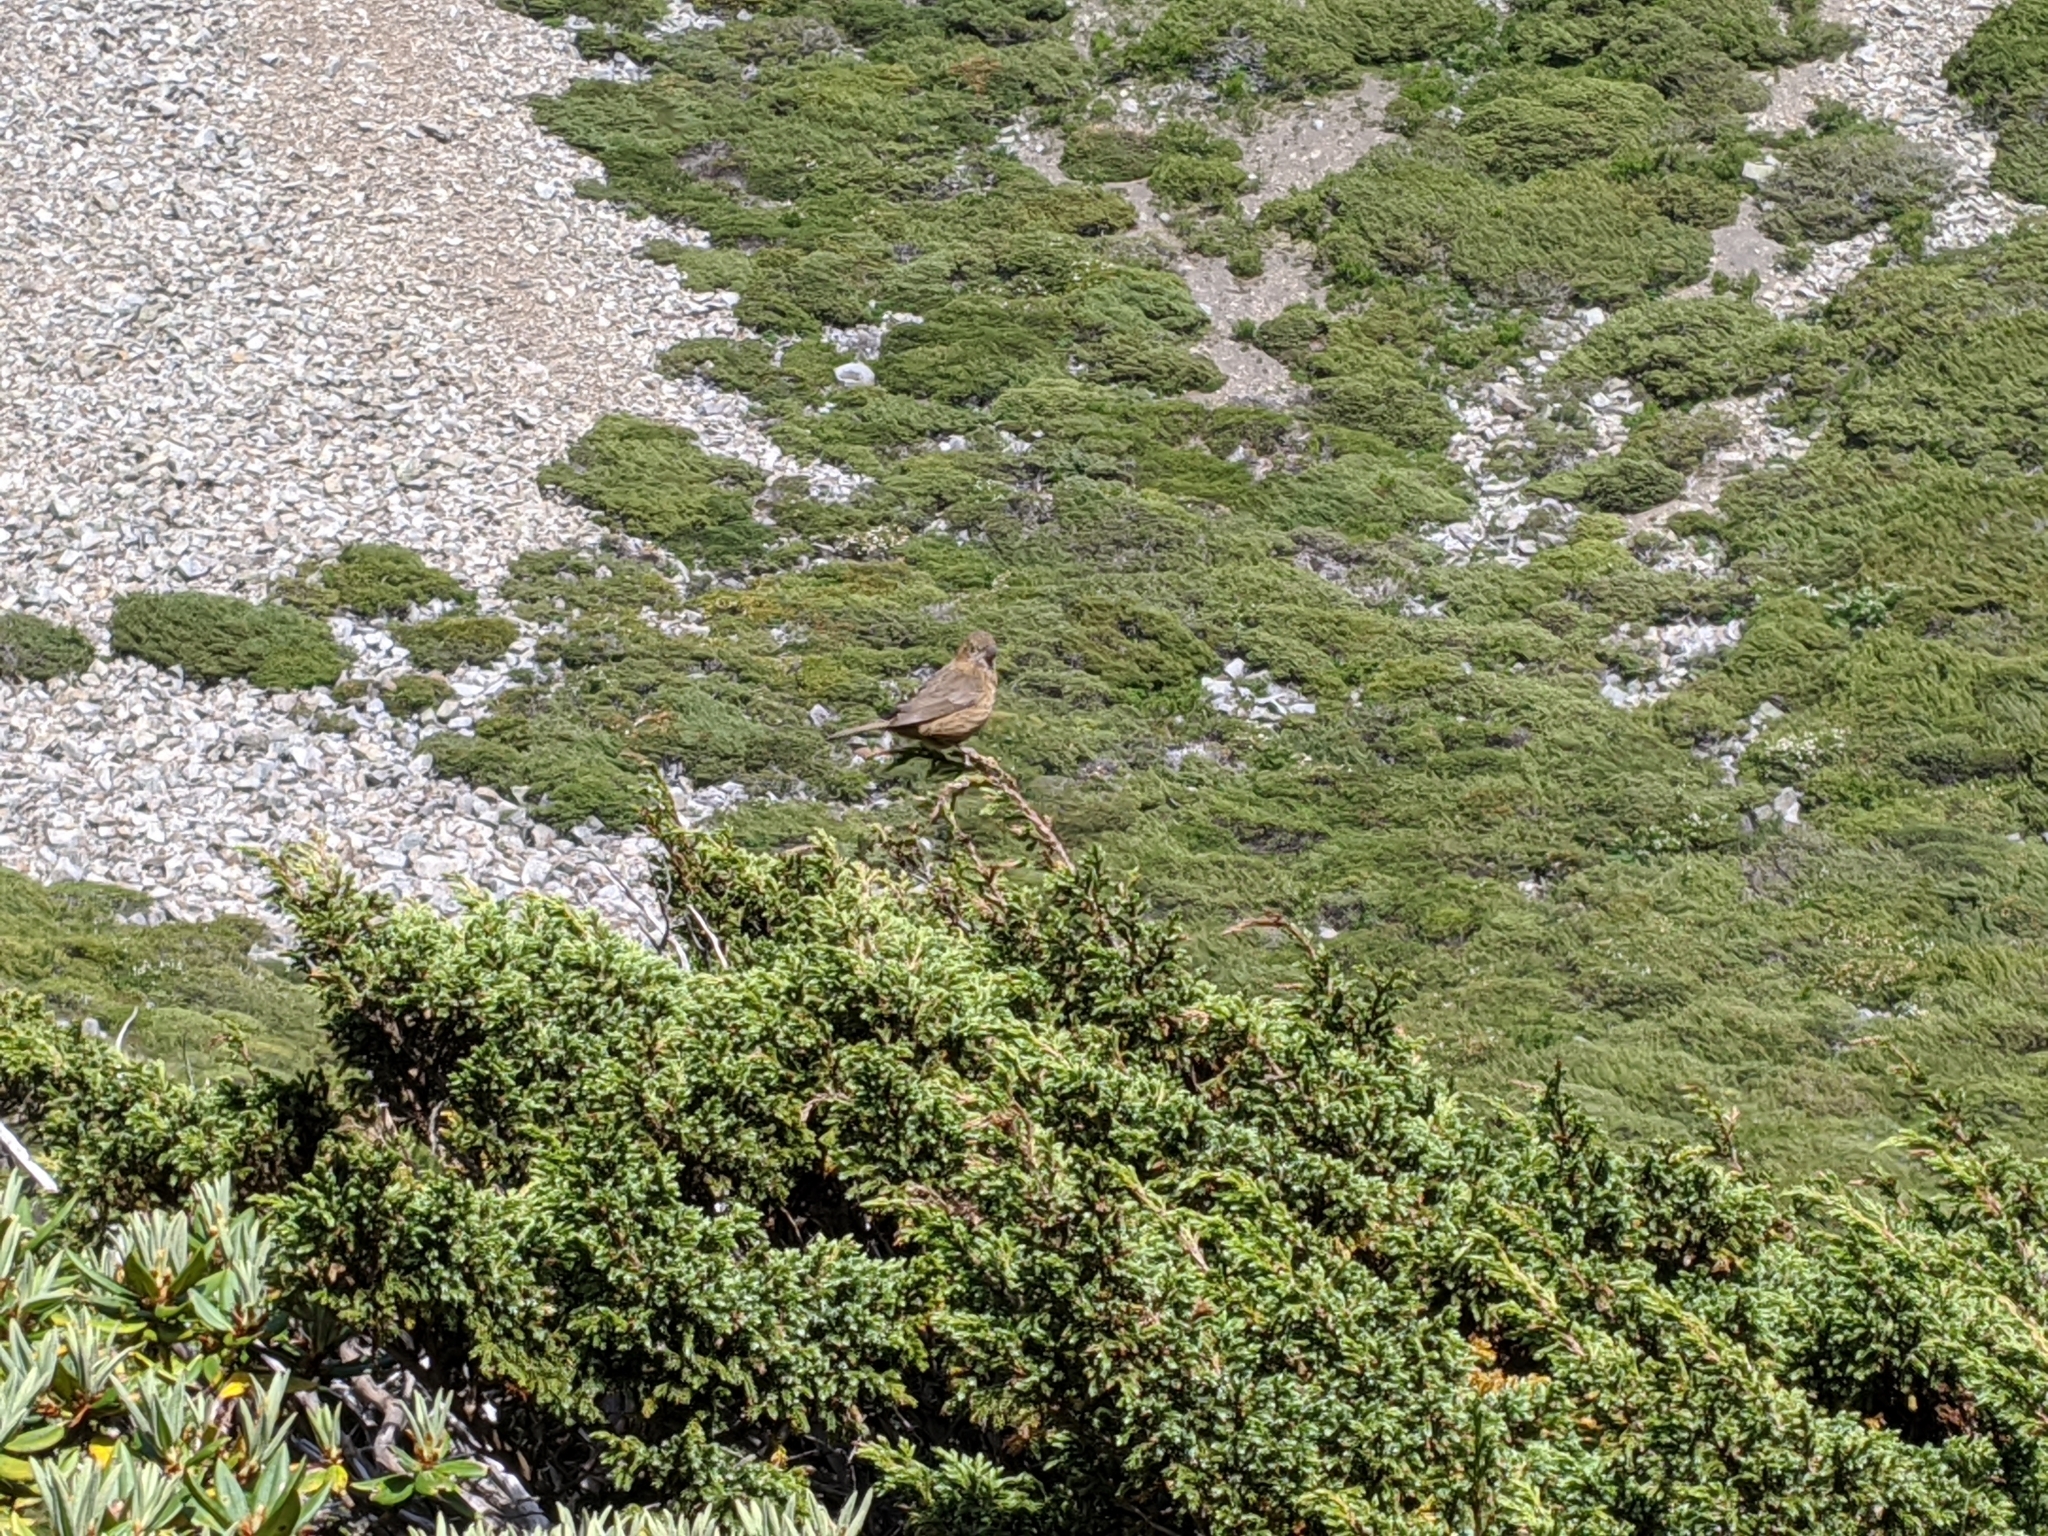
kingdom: Animalia
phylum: Chordata
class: Aves
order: Passeriformes
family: Fringillidae
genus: Carpodacus
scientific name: Carpodacus formosanus
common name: Taiwan rosefinch
